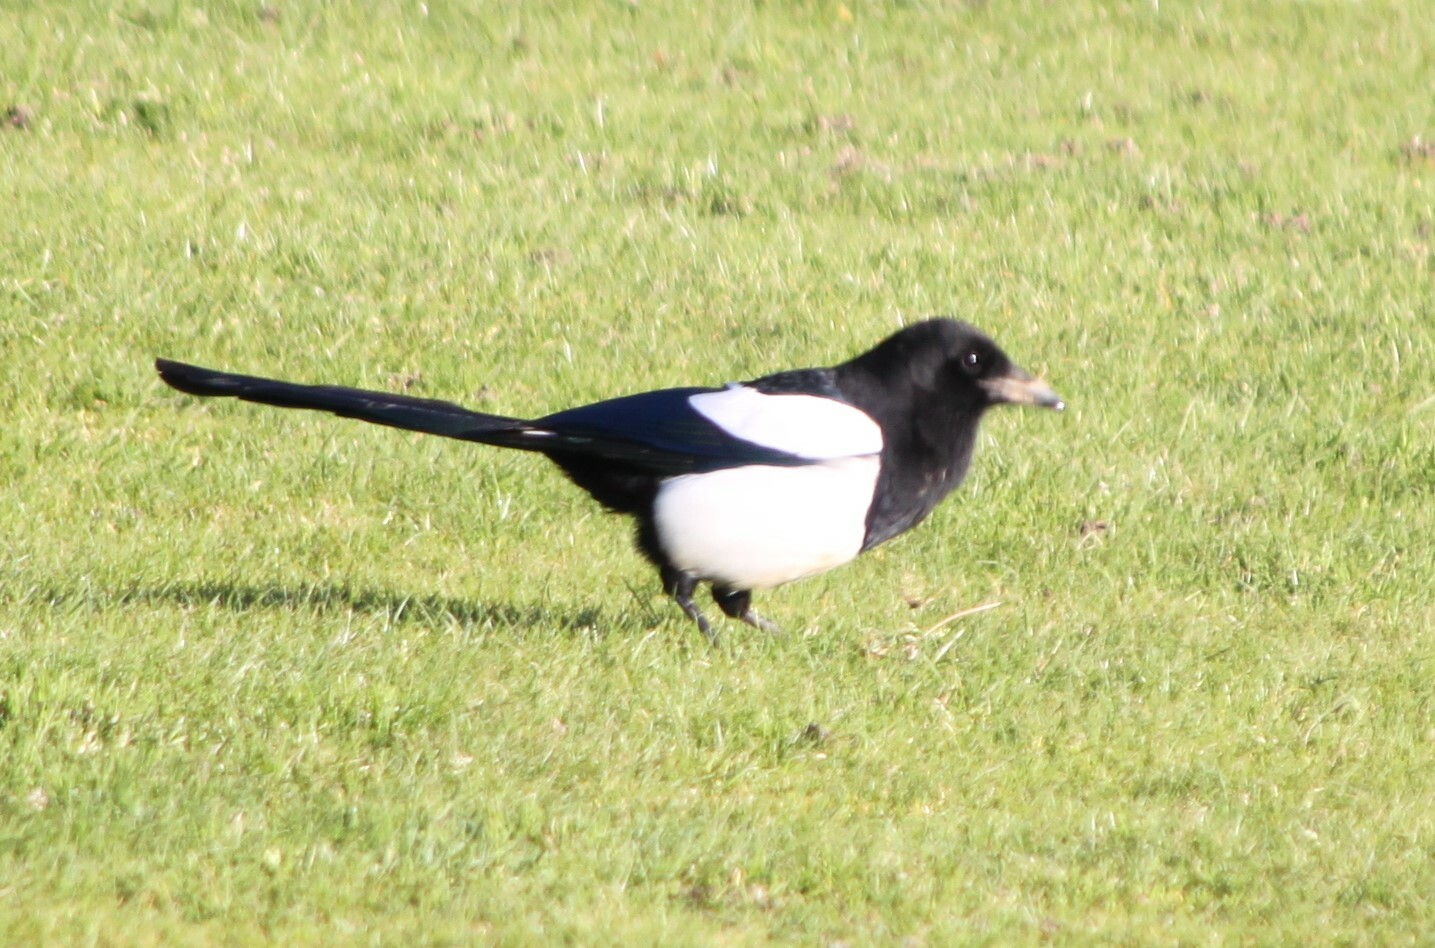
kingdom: Animalia
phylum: Chordata
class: Aves
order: Passeriformes
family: Corvidae
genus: Pica
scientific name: Pica pica
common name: Eurasian magpie
